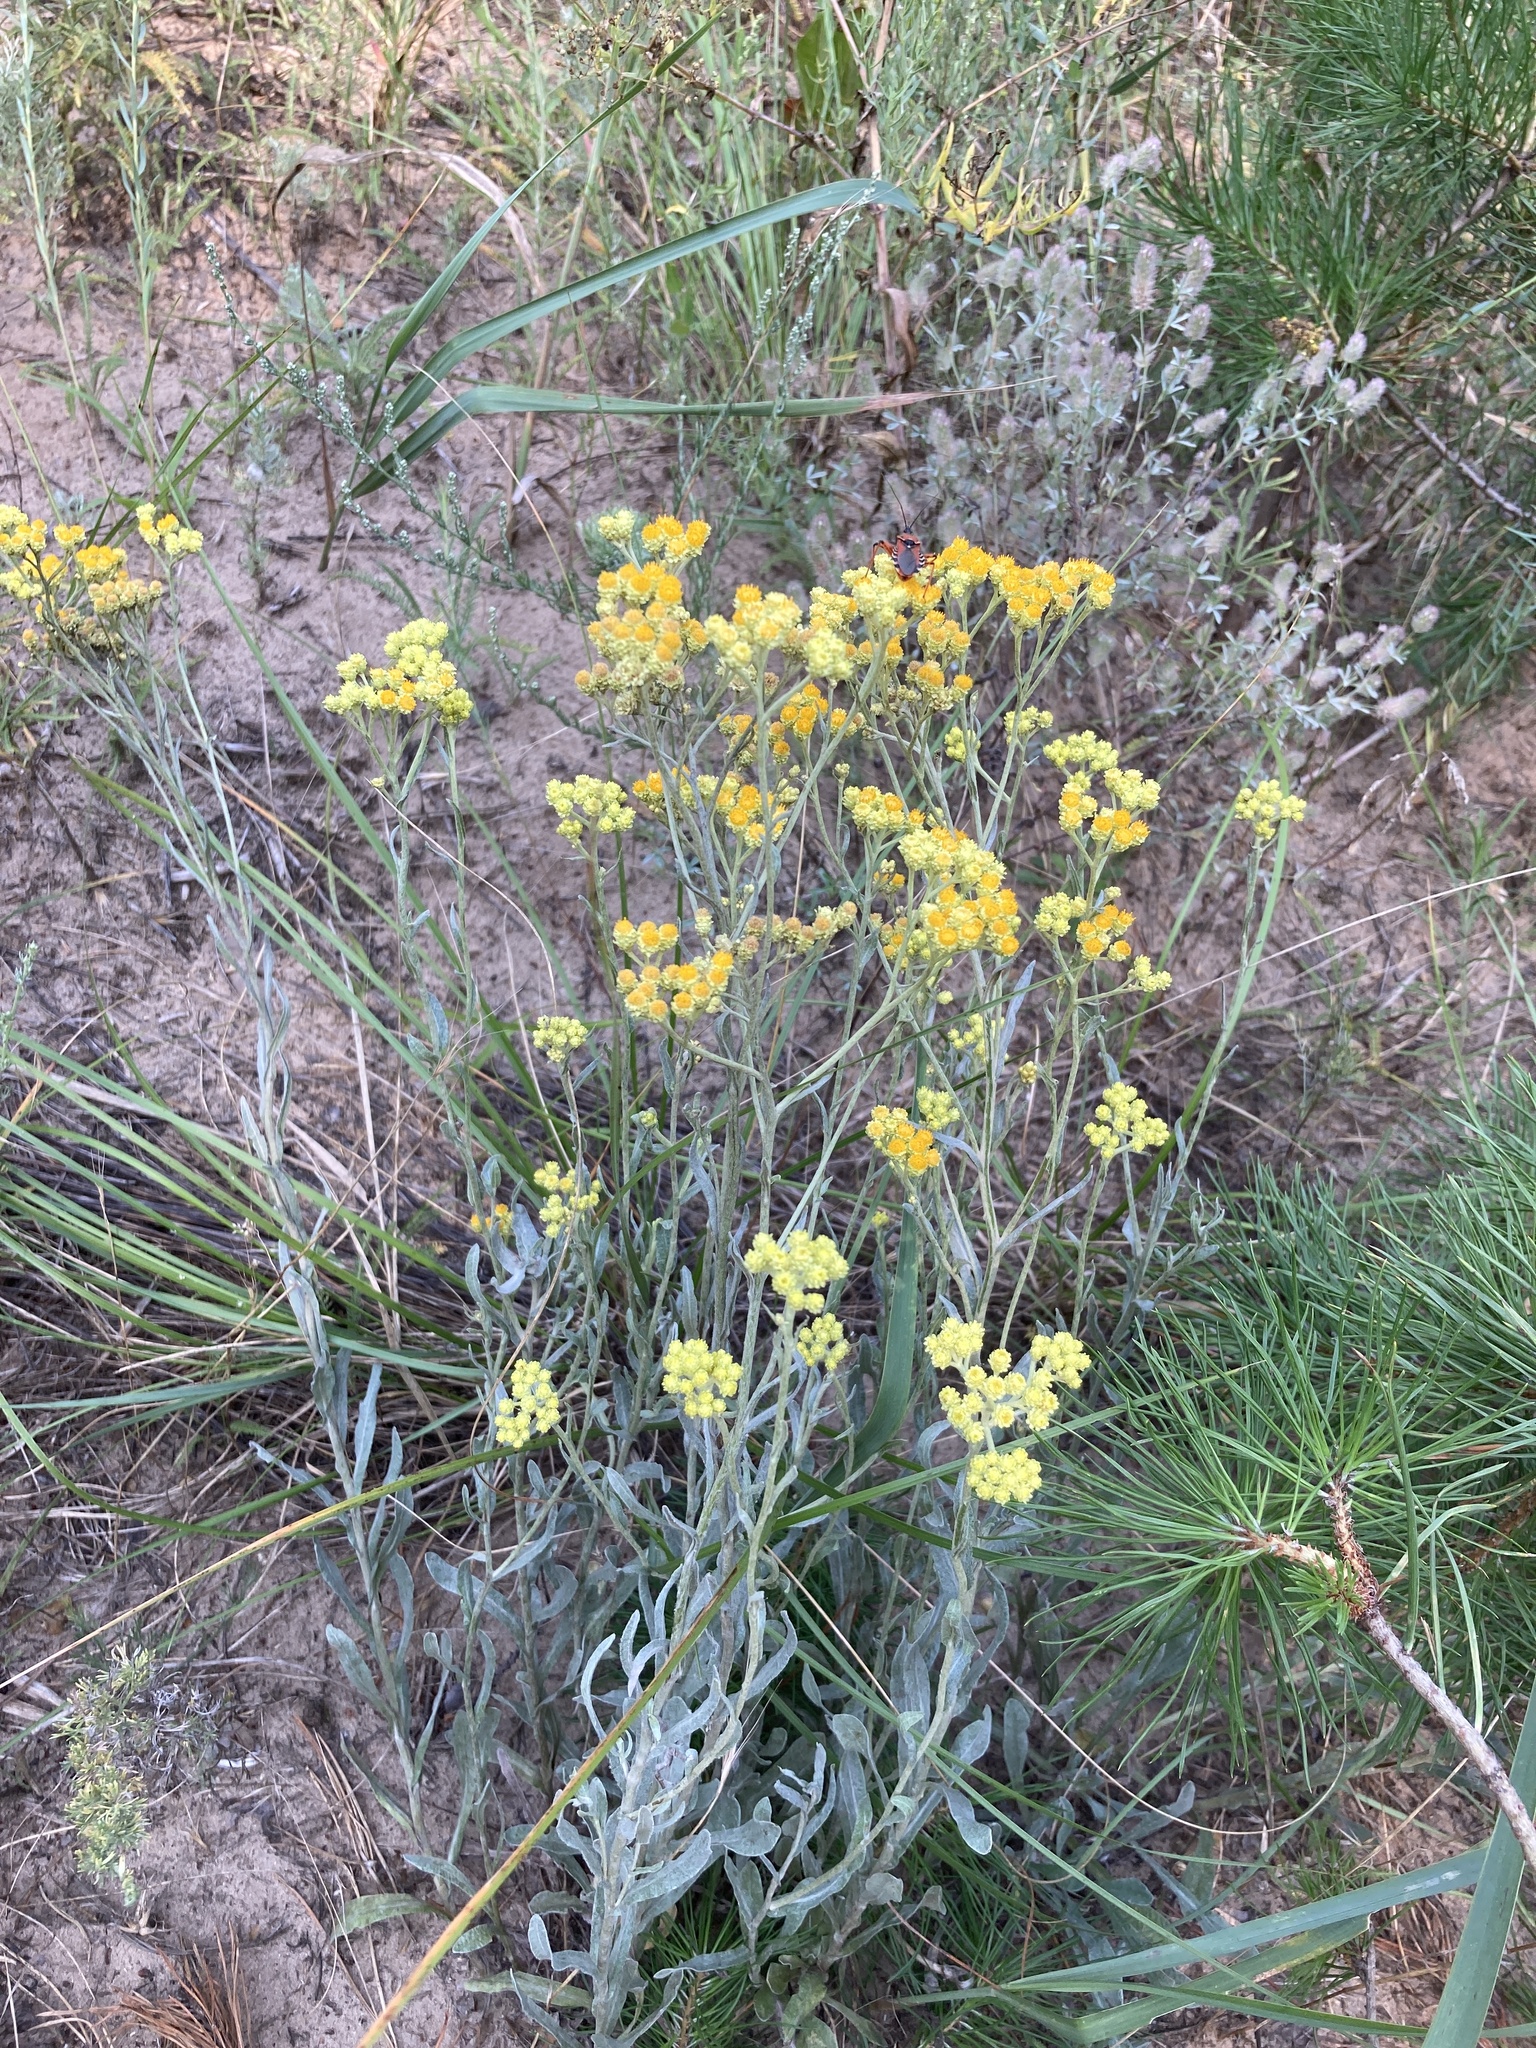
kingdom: Plantae
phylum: Tracheophyta
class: Magnoliopsida
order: Asterales
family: Asteraceae
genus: Helichrysum
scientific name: Helichrysum arenarium
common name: Strawflower
